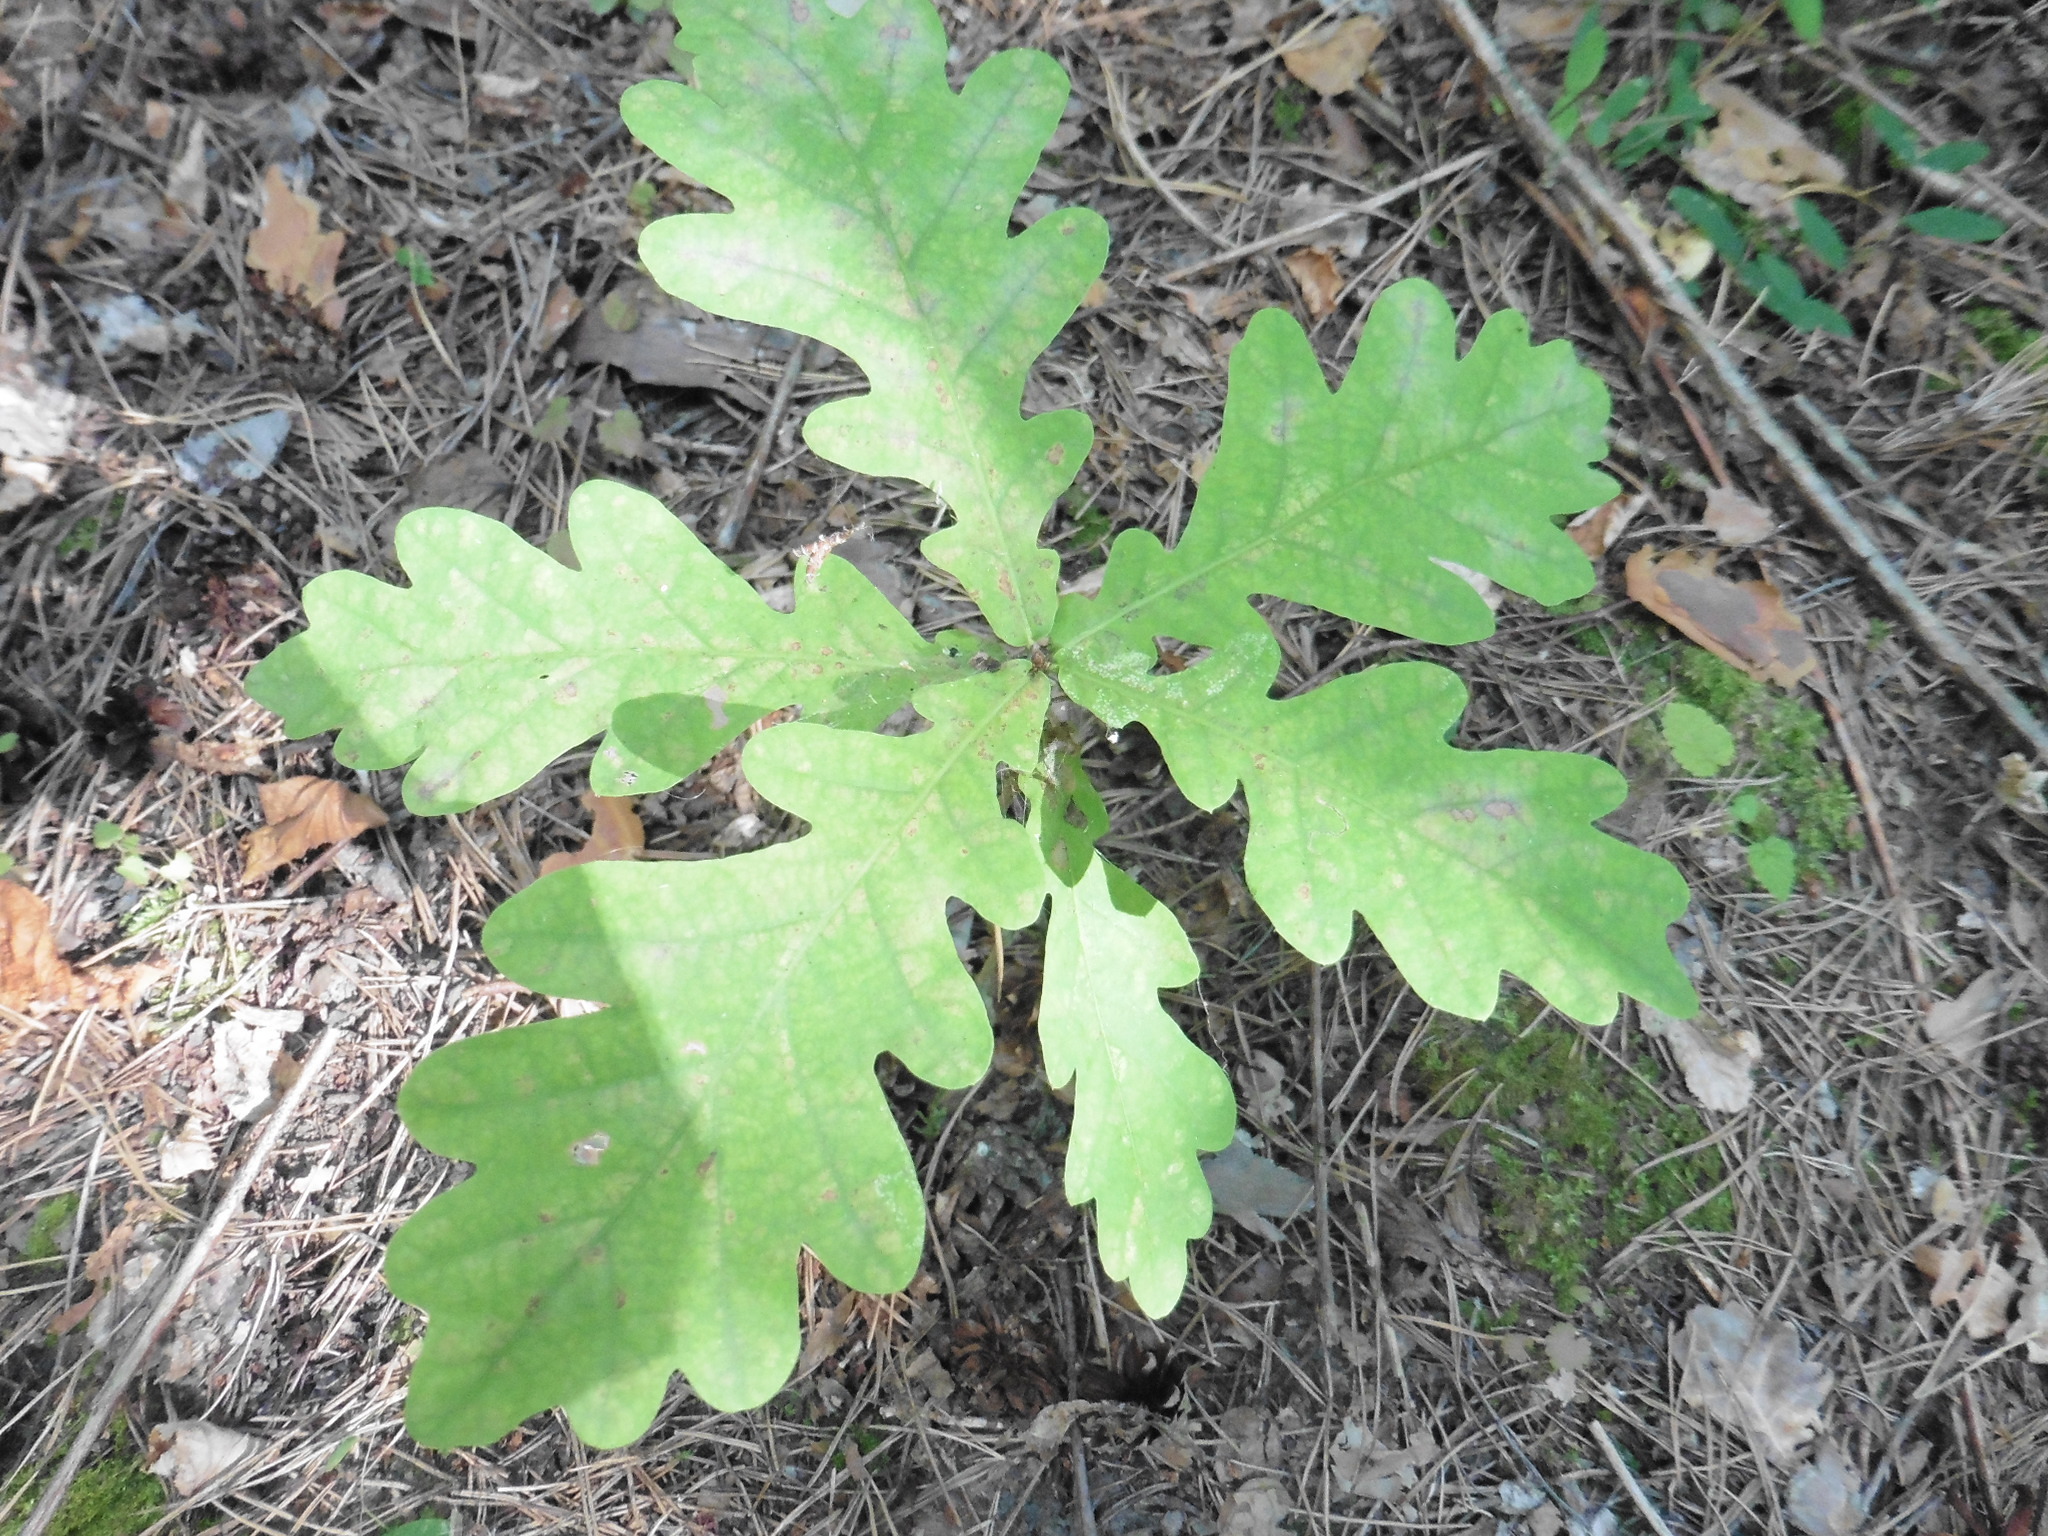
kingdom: Plantae
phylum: Tracheophyta
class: Magnoliopsida
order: Fagales
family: Fagaceae
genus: Quercus
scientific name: Quercus robur
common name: Pedunculate oak
